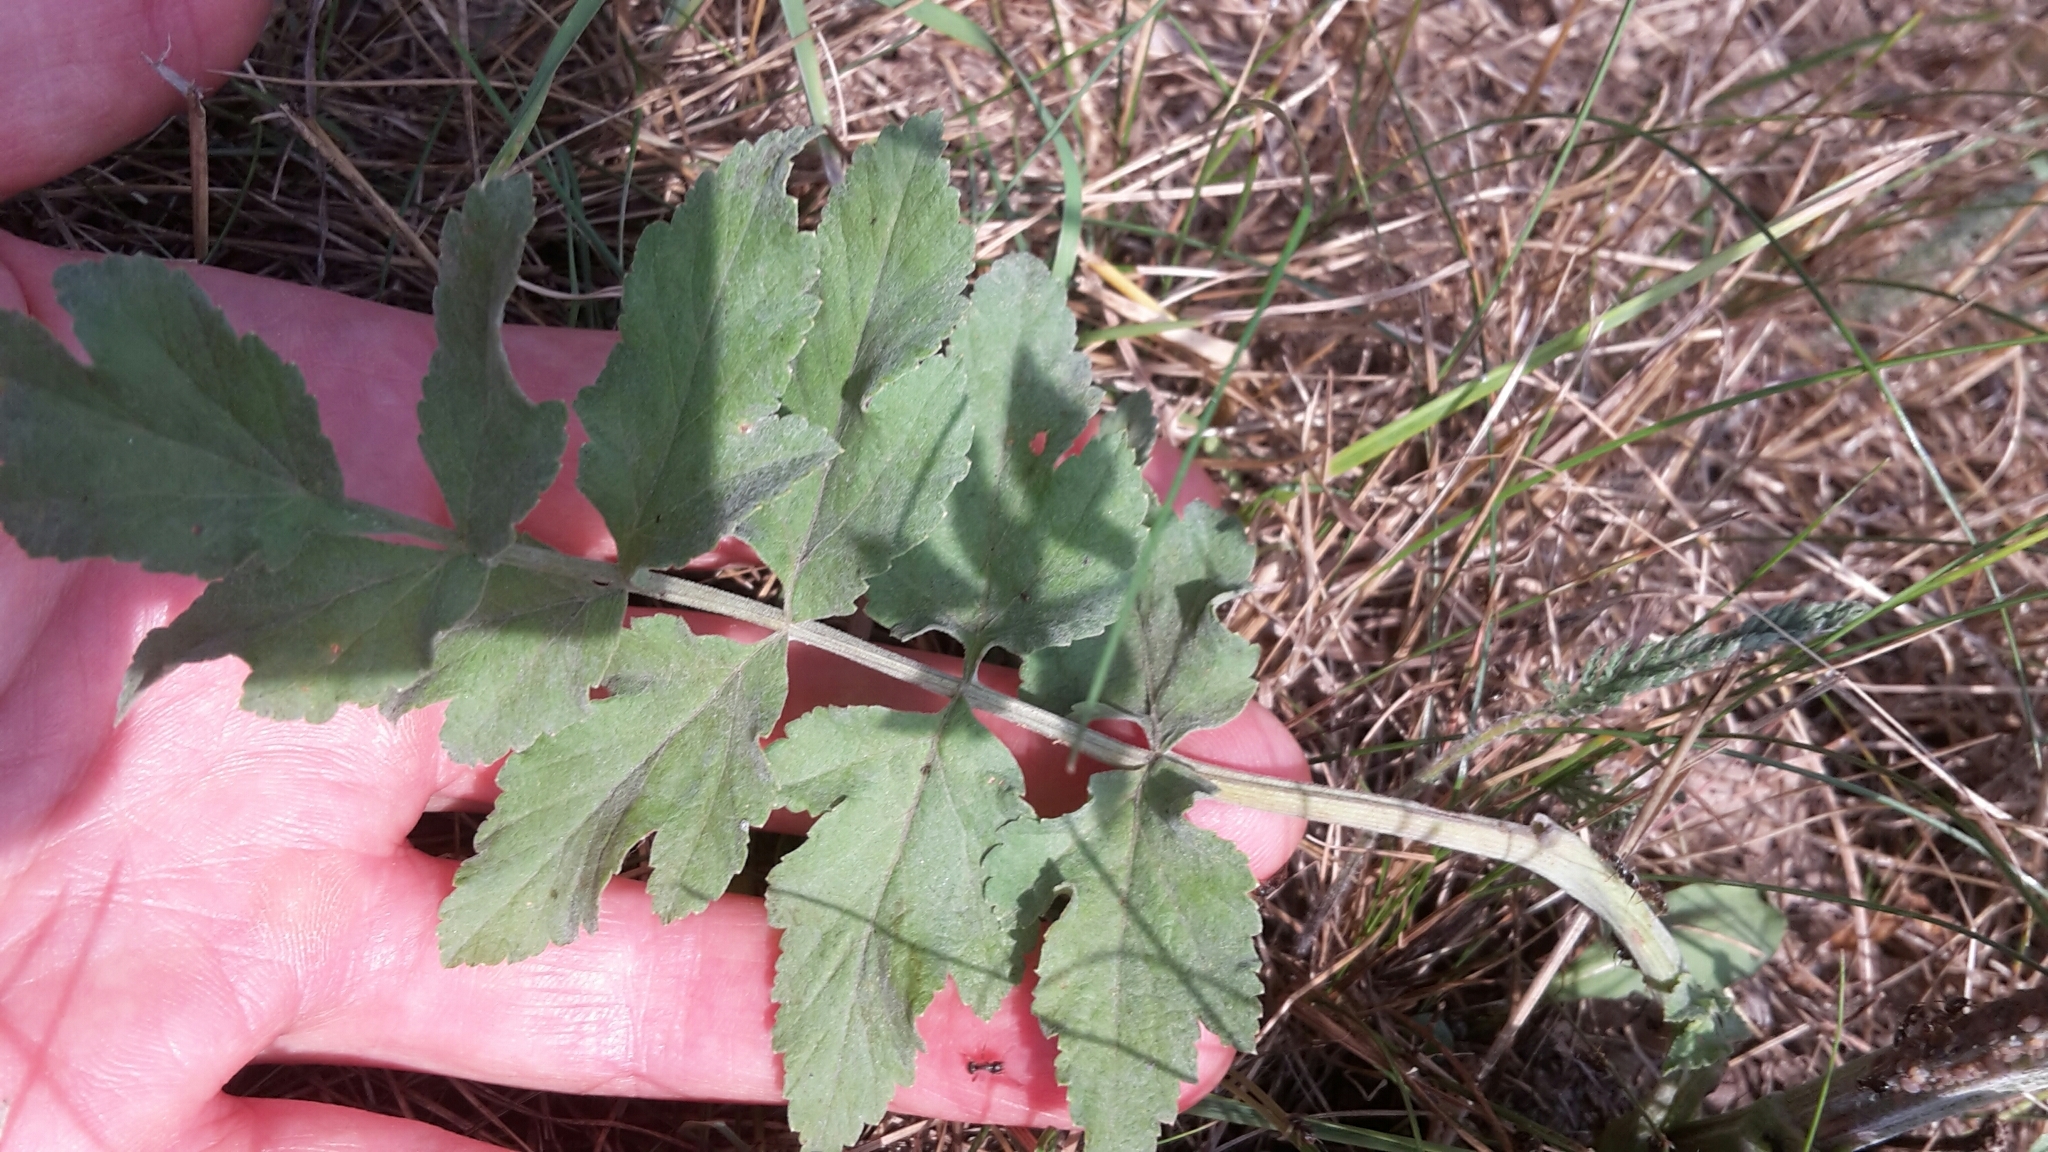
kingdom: Plantae
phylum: Tracheophyta
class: Magnoliopsida
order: Apiales
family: Apiaceae
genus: Pastinaca
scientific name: Pastinaca sativa
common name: Wild parsnip
